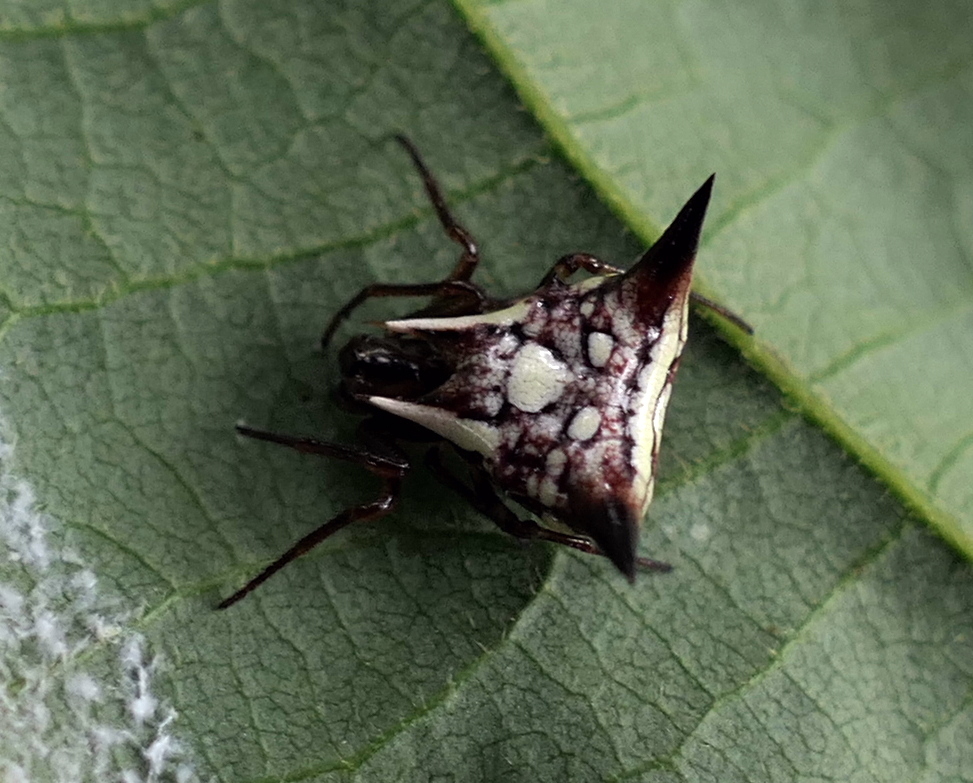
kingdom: Animalia
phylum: Arthropoda
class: Arachnida
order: Araneae
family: Araneidae
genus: Micrathena
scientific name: Micrathena evansi
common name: Orb weavers
